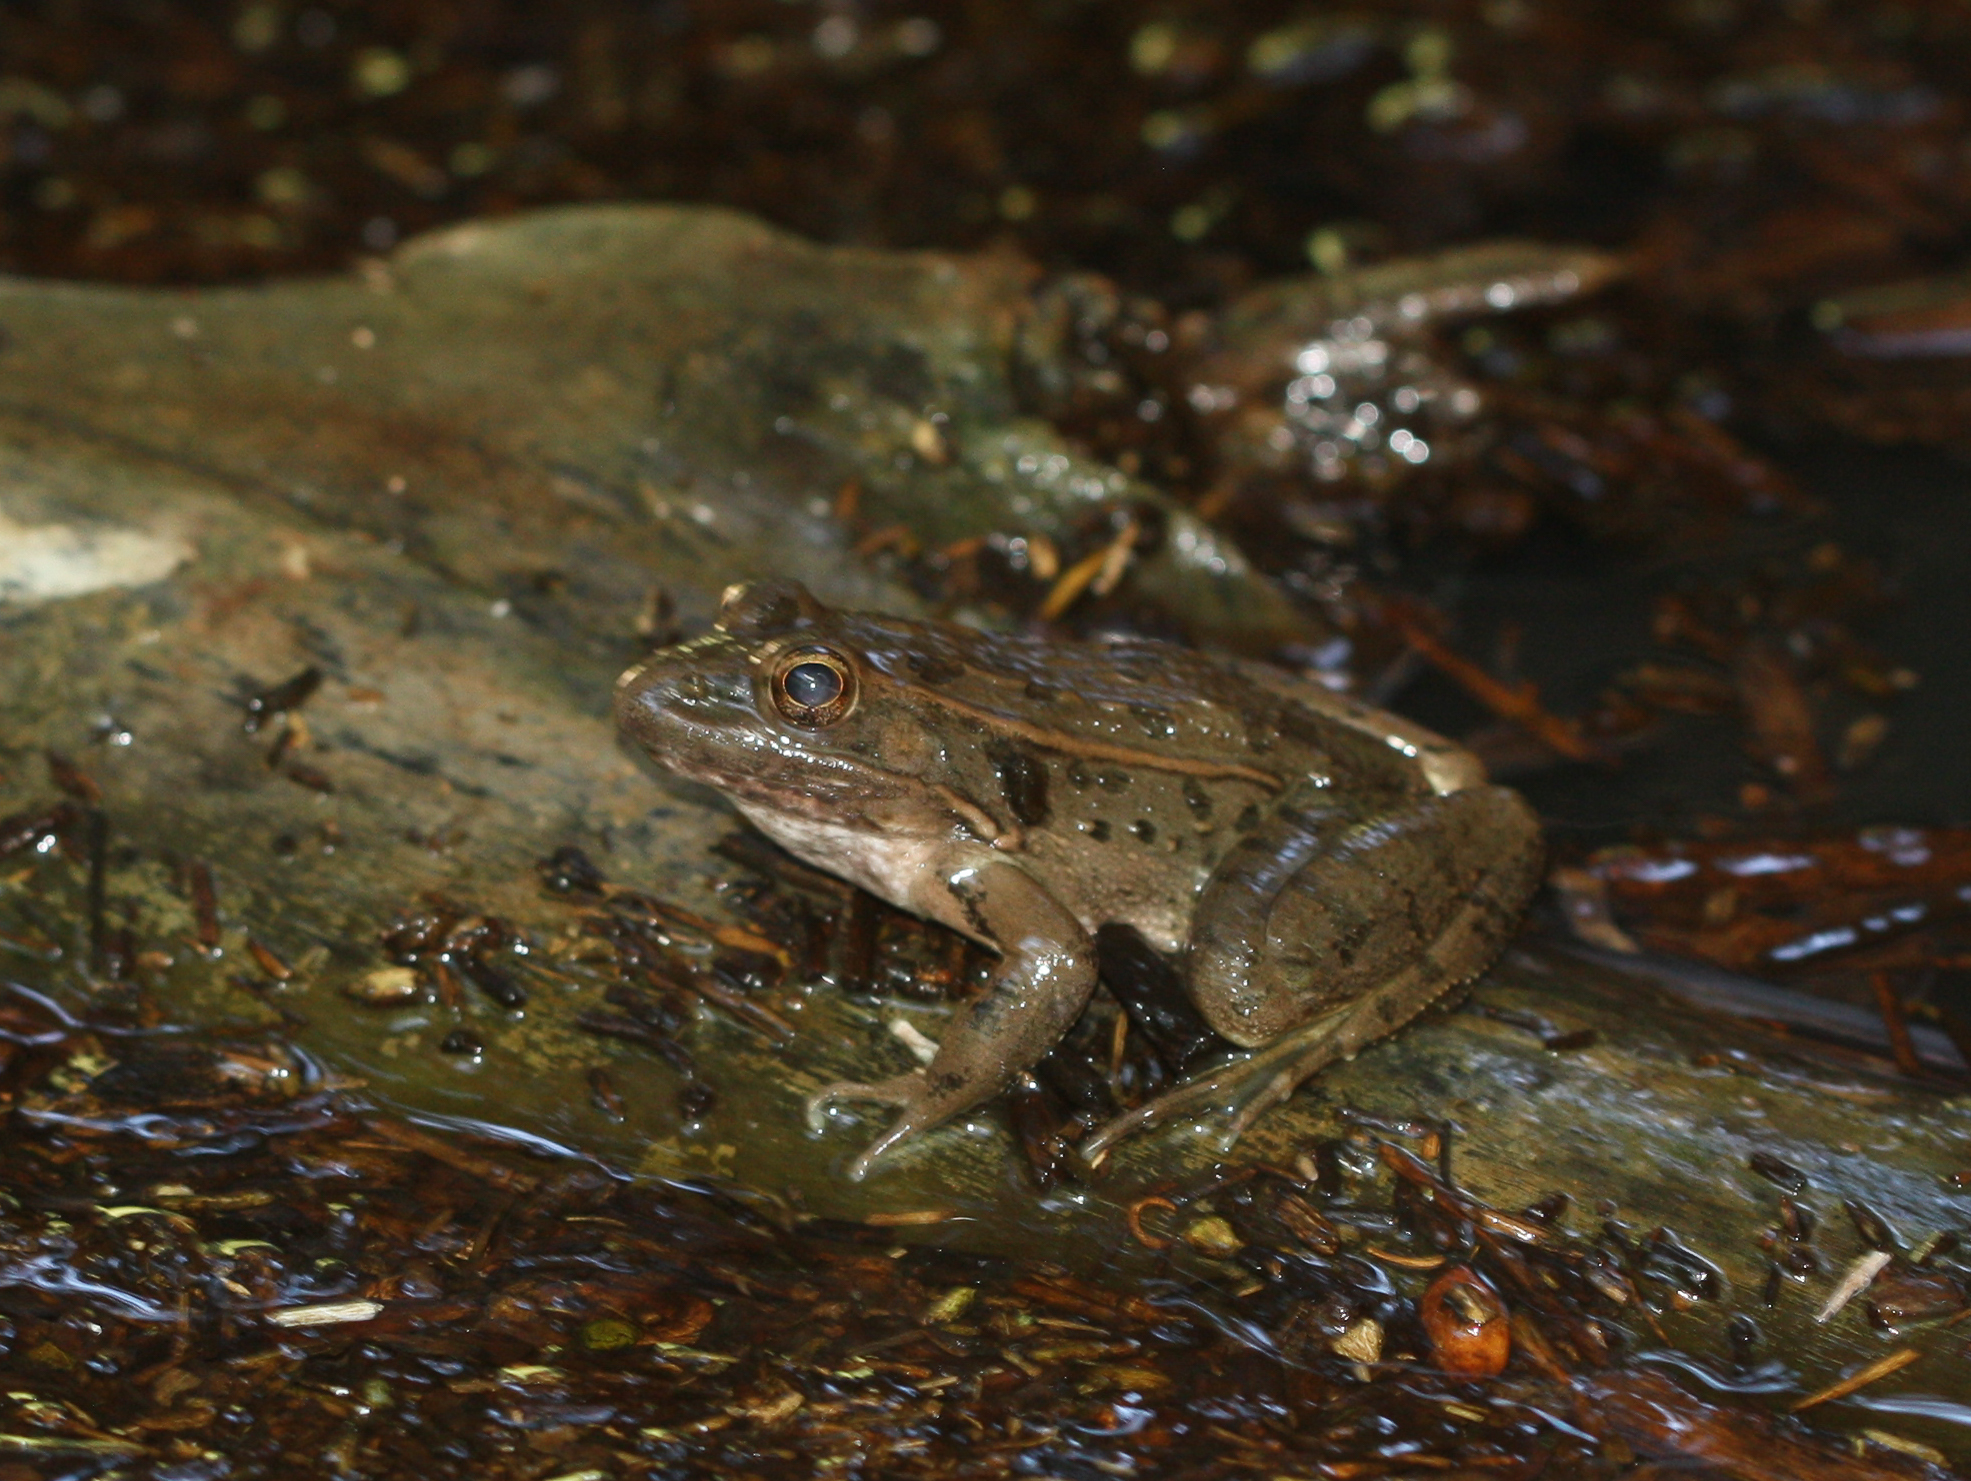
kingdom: Animalia
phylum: Chordata
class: Amphibia
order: Anura
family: Ranidae
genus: Lithobates
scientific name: Lithobates yavapaiensis
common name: Lowland leopard frog
